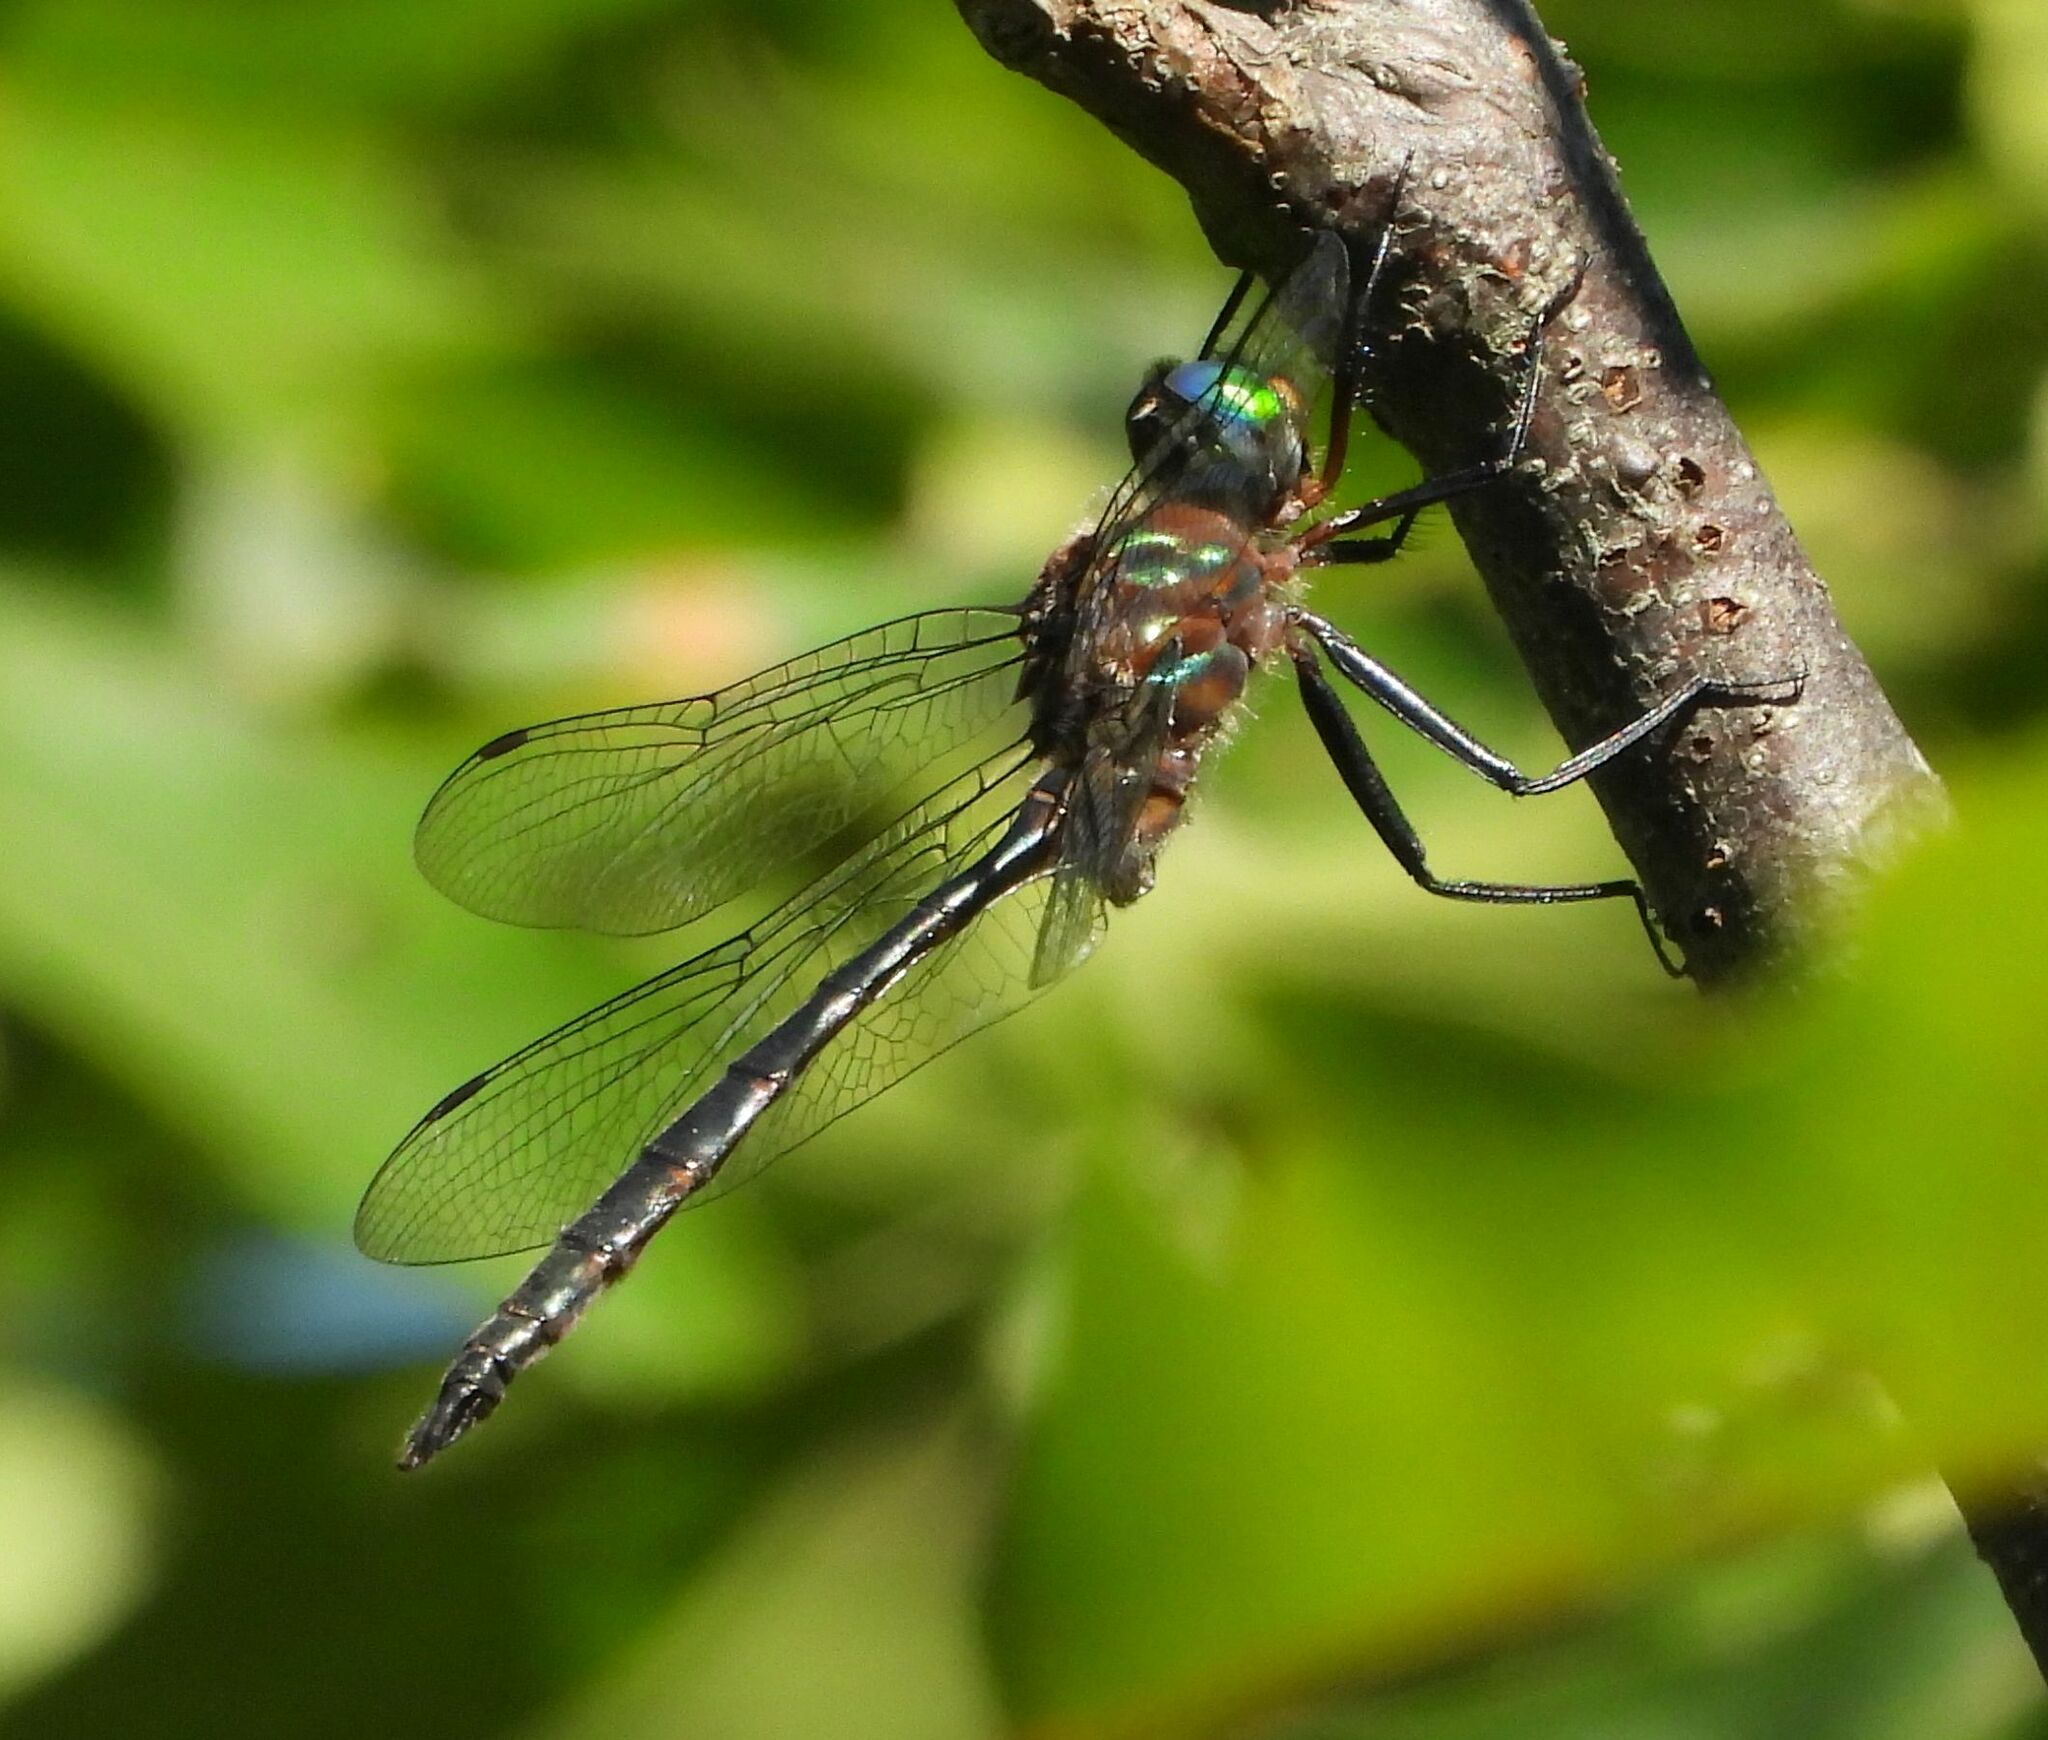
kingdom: Animalia
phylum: Arthropoda
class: Insecta
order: Odonata
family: Corduliidae
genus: Somatochlora
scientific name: Somatochlora williamsoni
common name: Williamson's emerald
